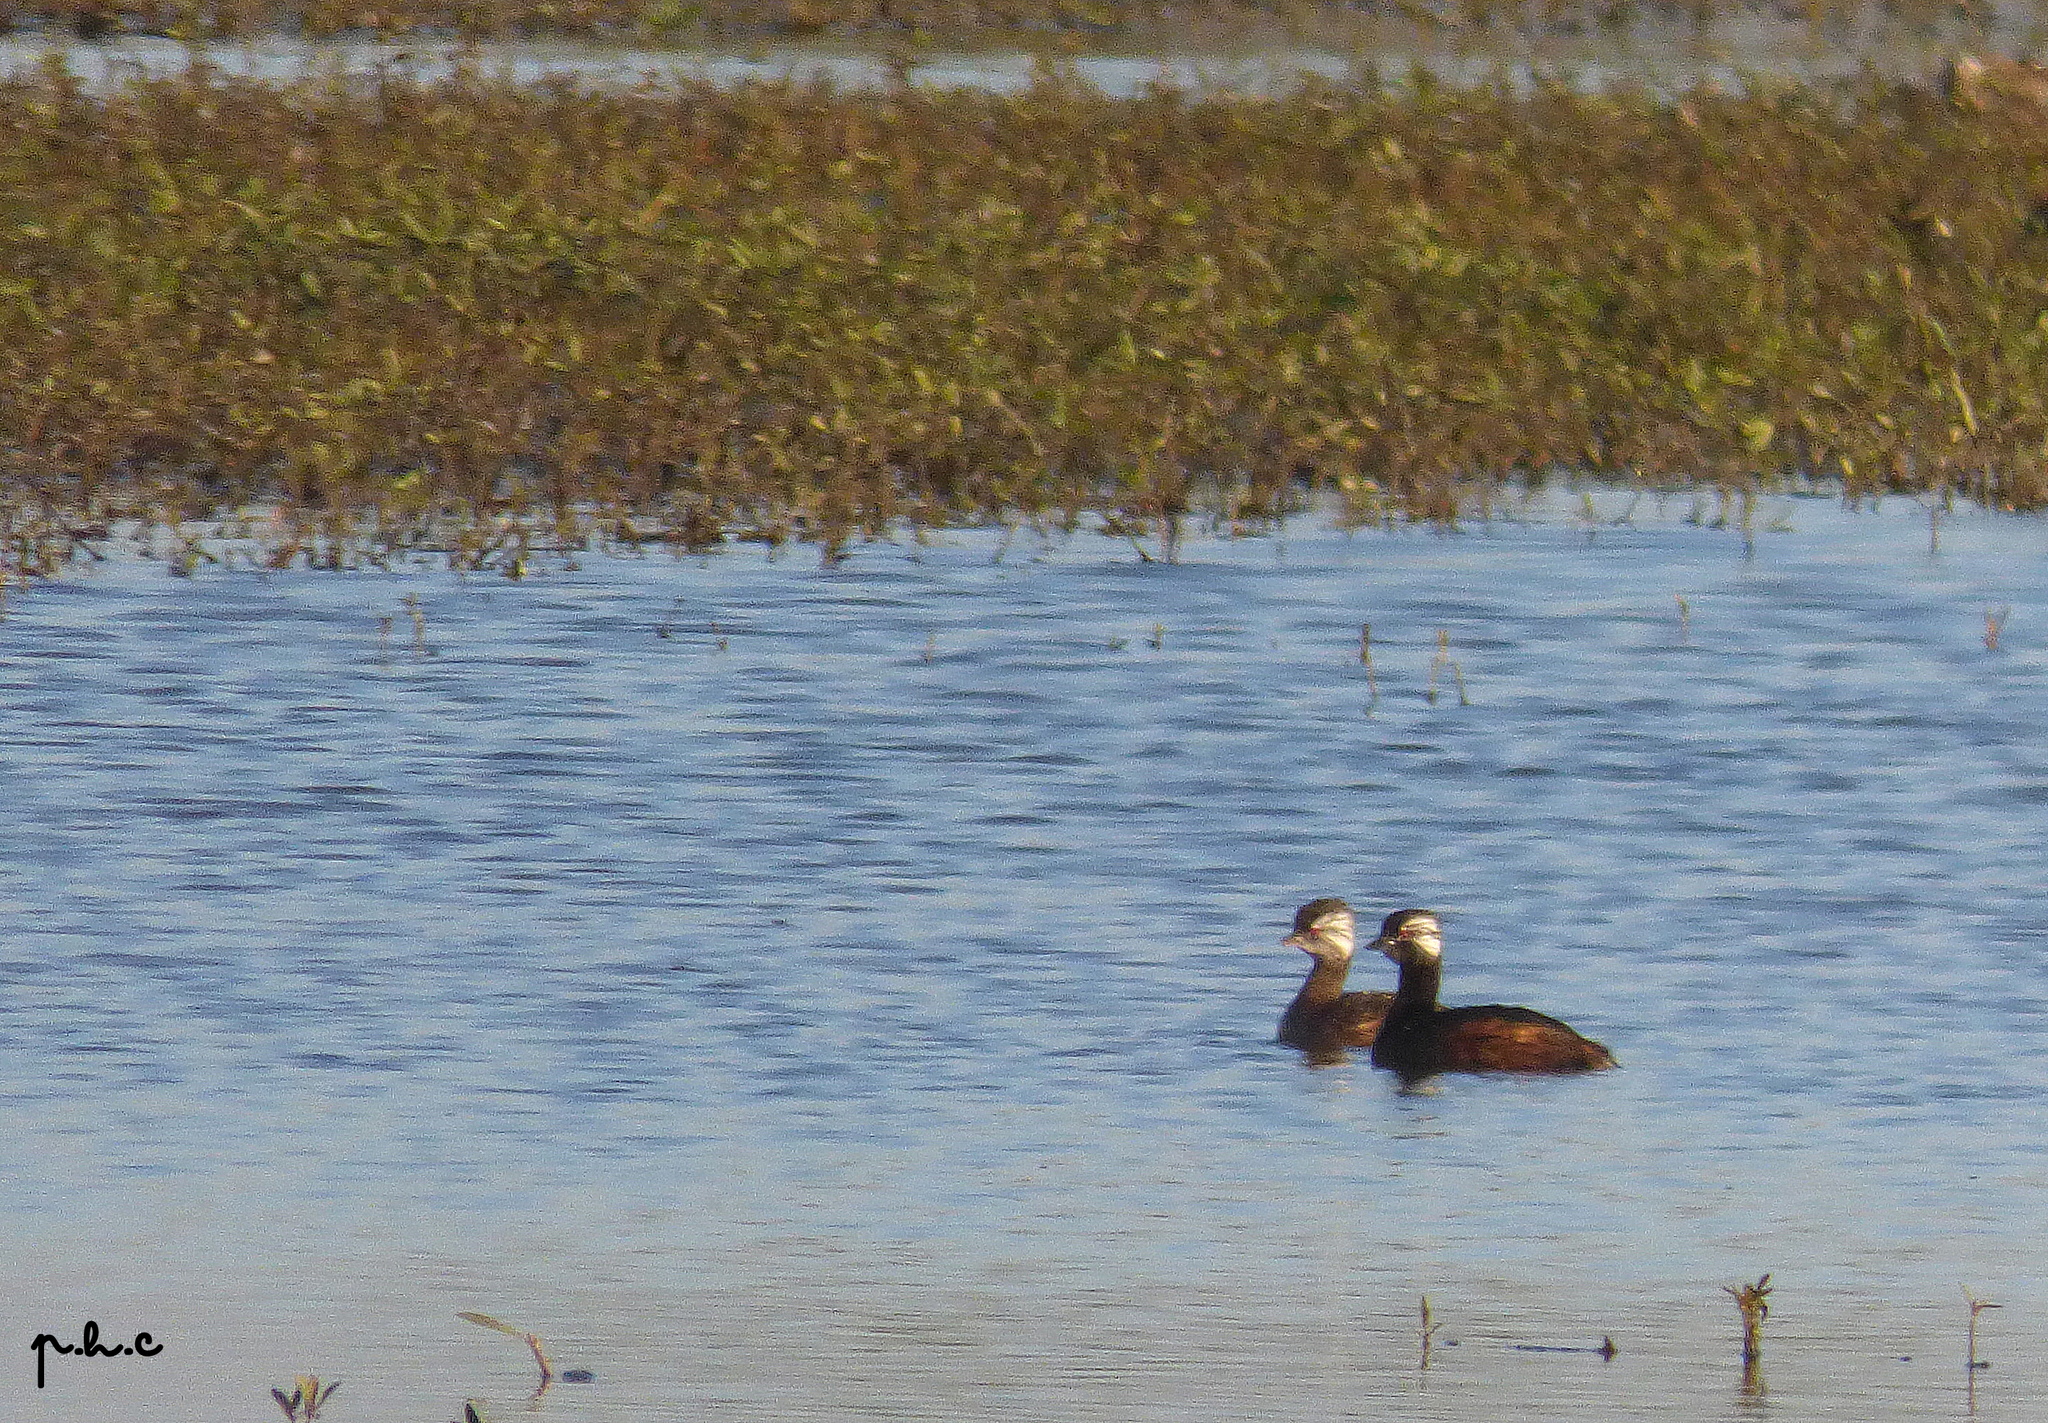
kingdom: Animalia
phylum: Chordata
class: Aves
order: Podicipediformes
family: Podicipedidae
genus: Rollandia
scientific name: Rollandia rolland
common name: White-tufted grebe
